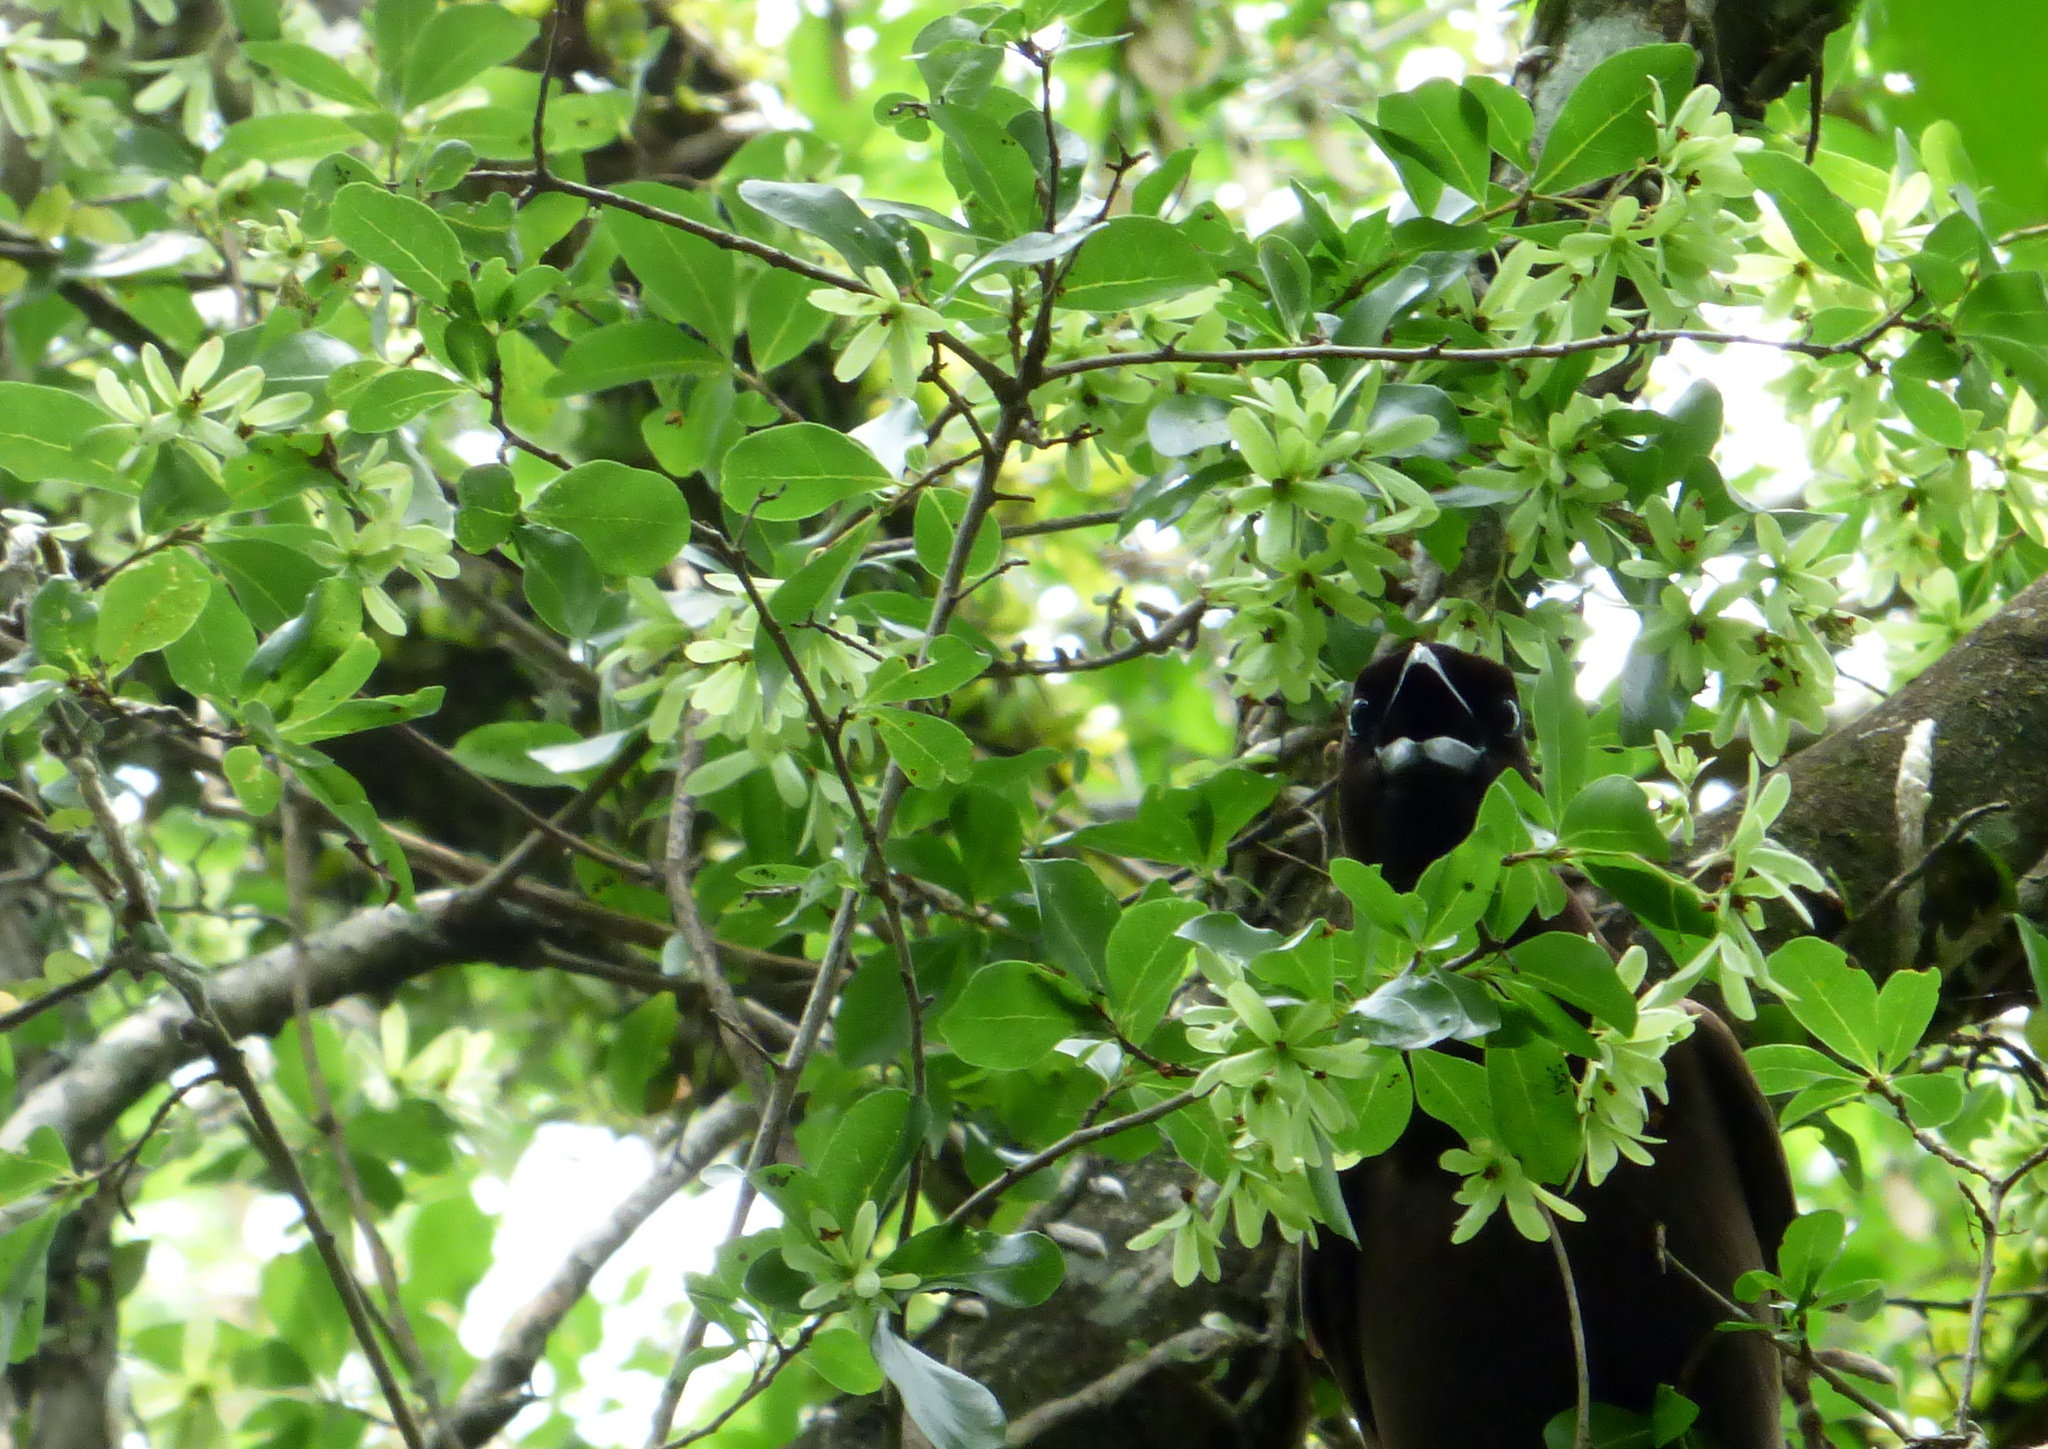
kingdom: Plantae
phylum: Tracheophyta
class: Magnoliopsida
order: Boraginales
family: Cordiaceae
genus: Cordia
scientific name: Cordia americana
